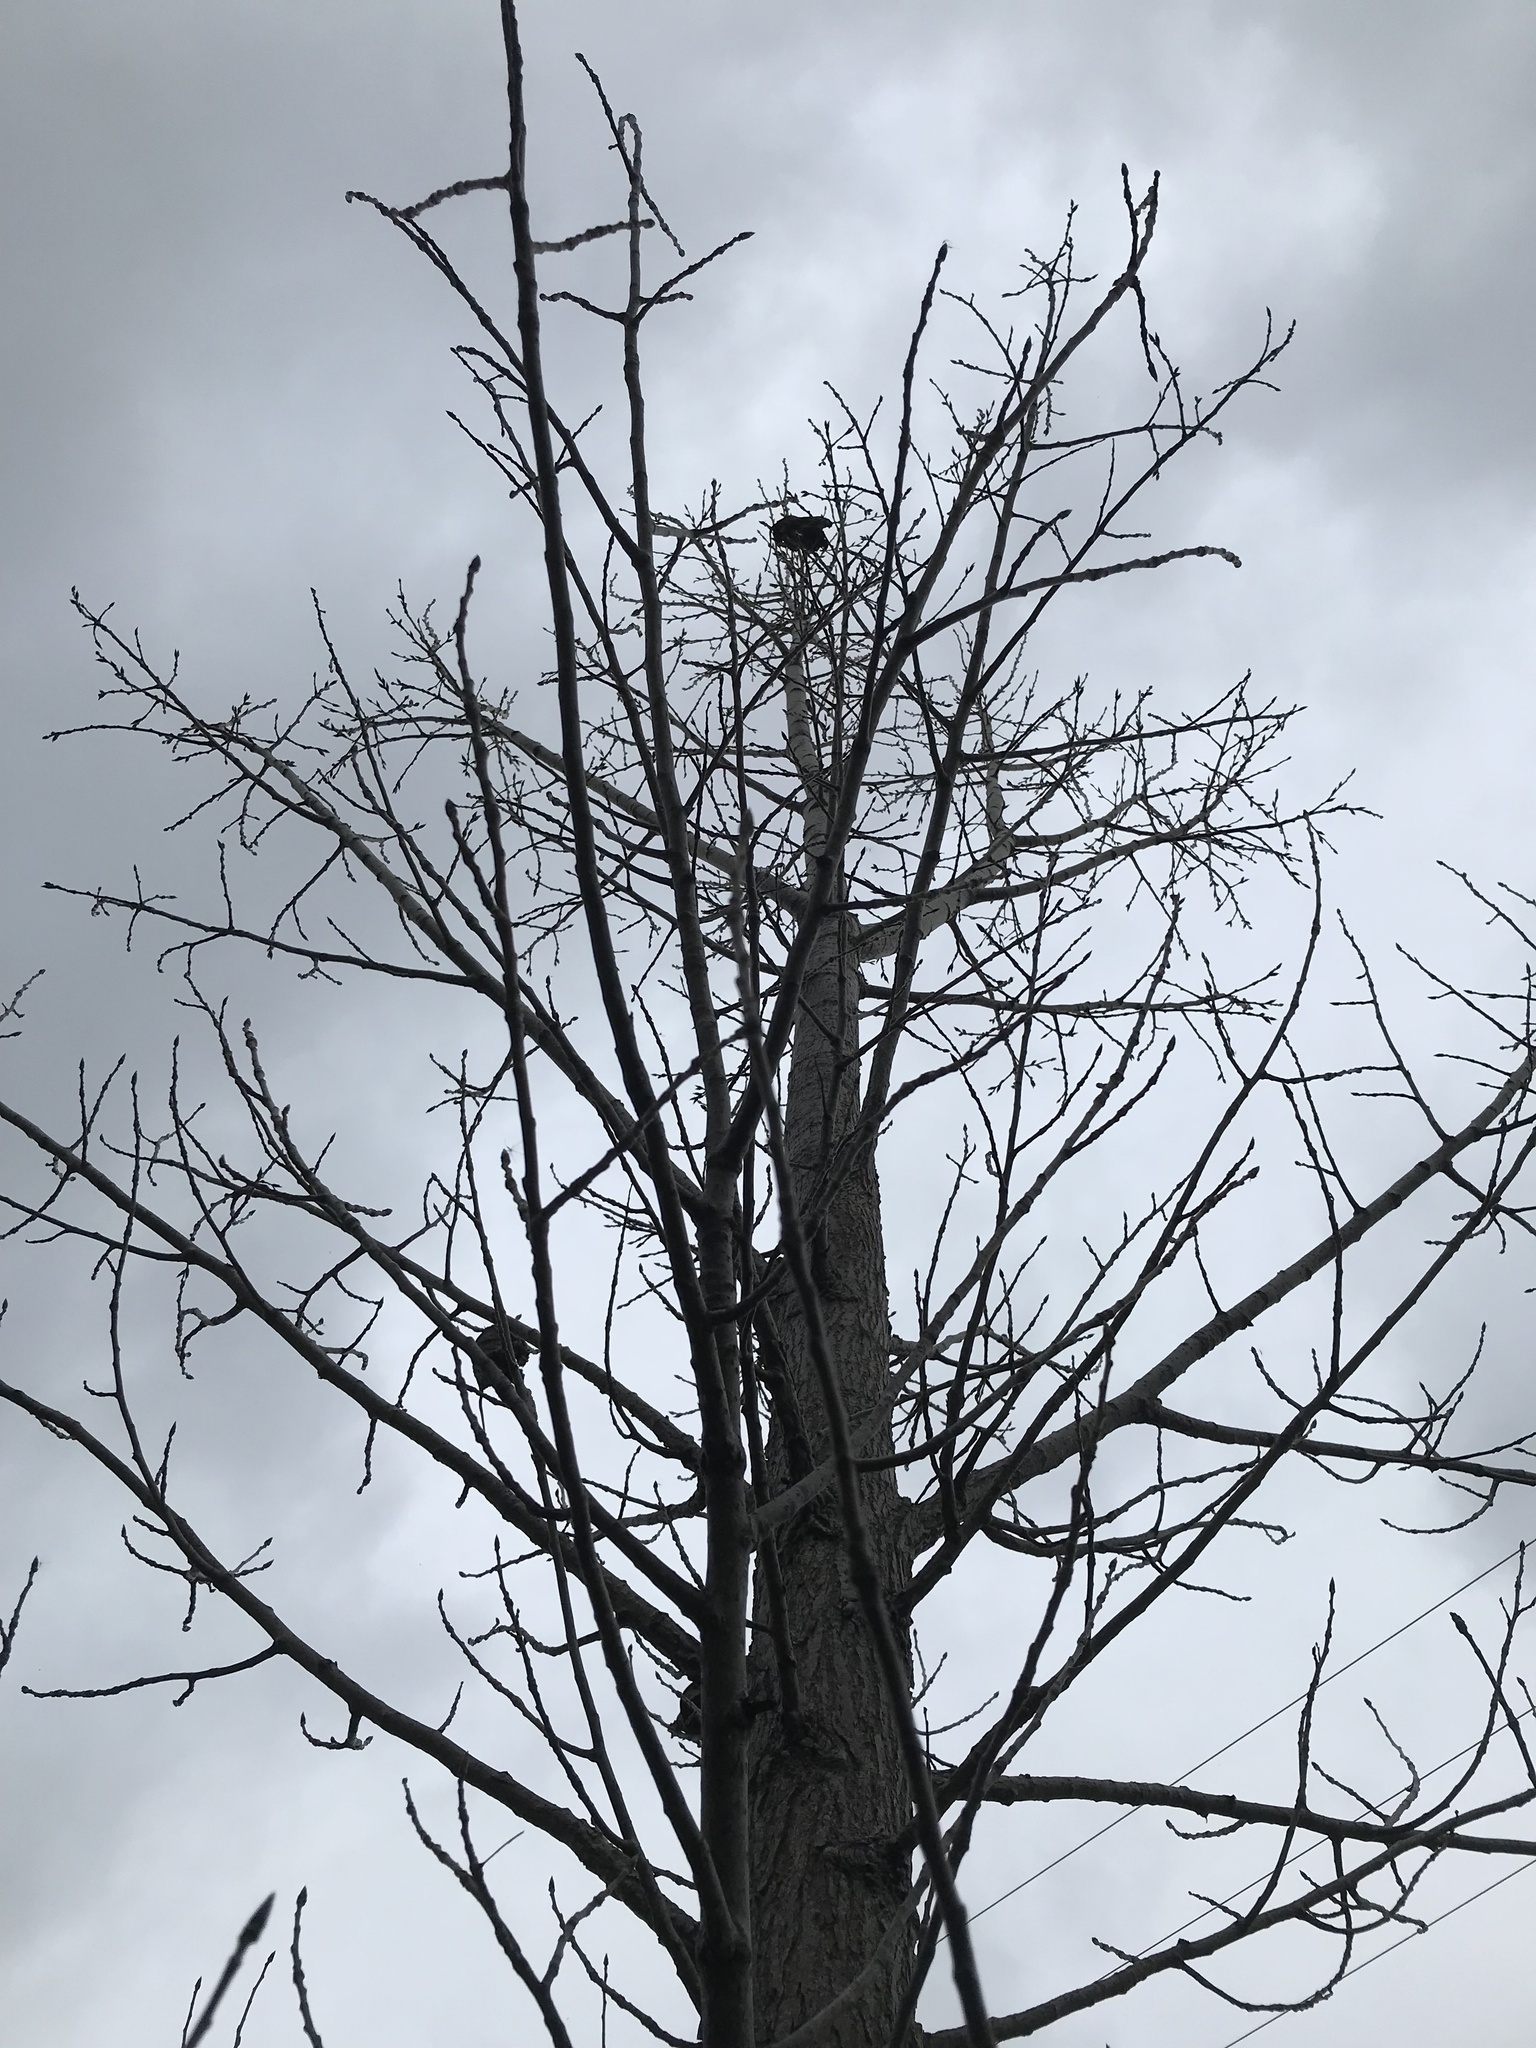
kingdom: Plantae
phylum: Tracheophyta
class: Magnoliopsida
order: Malpighiales
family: Salicaceae
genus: Populus
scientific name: Populus deltoides
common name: Eastern cottonwood
